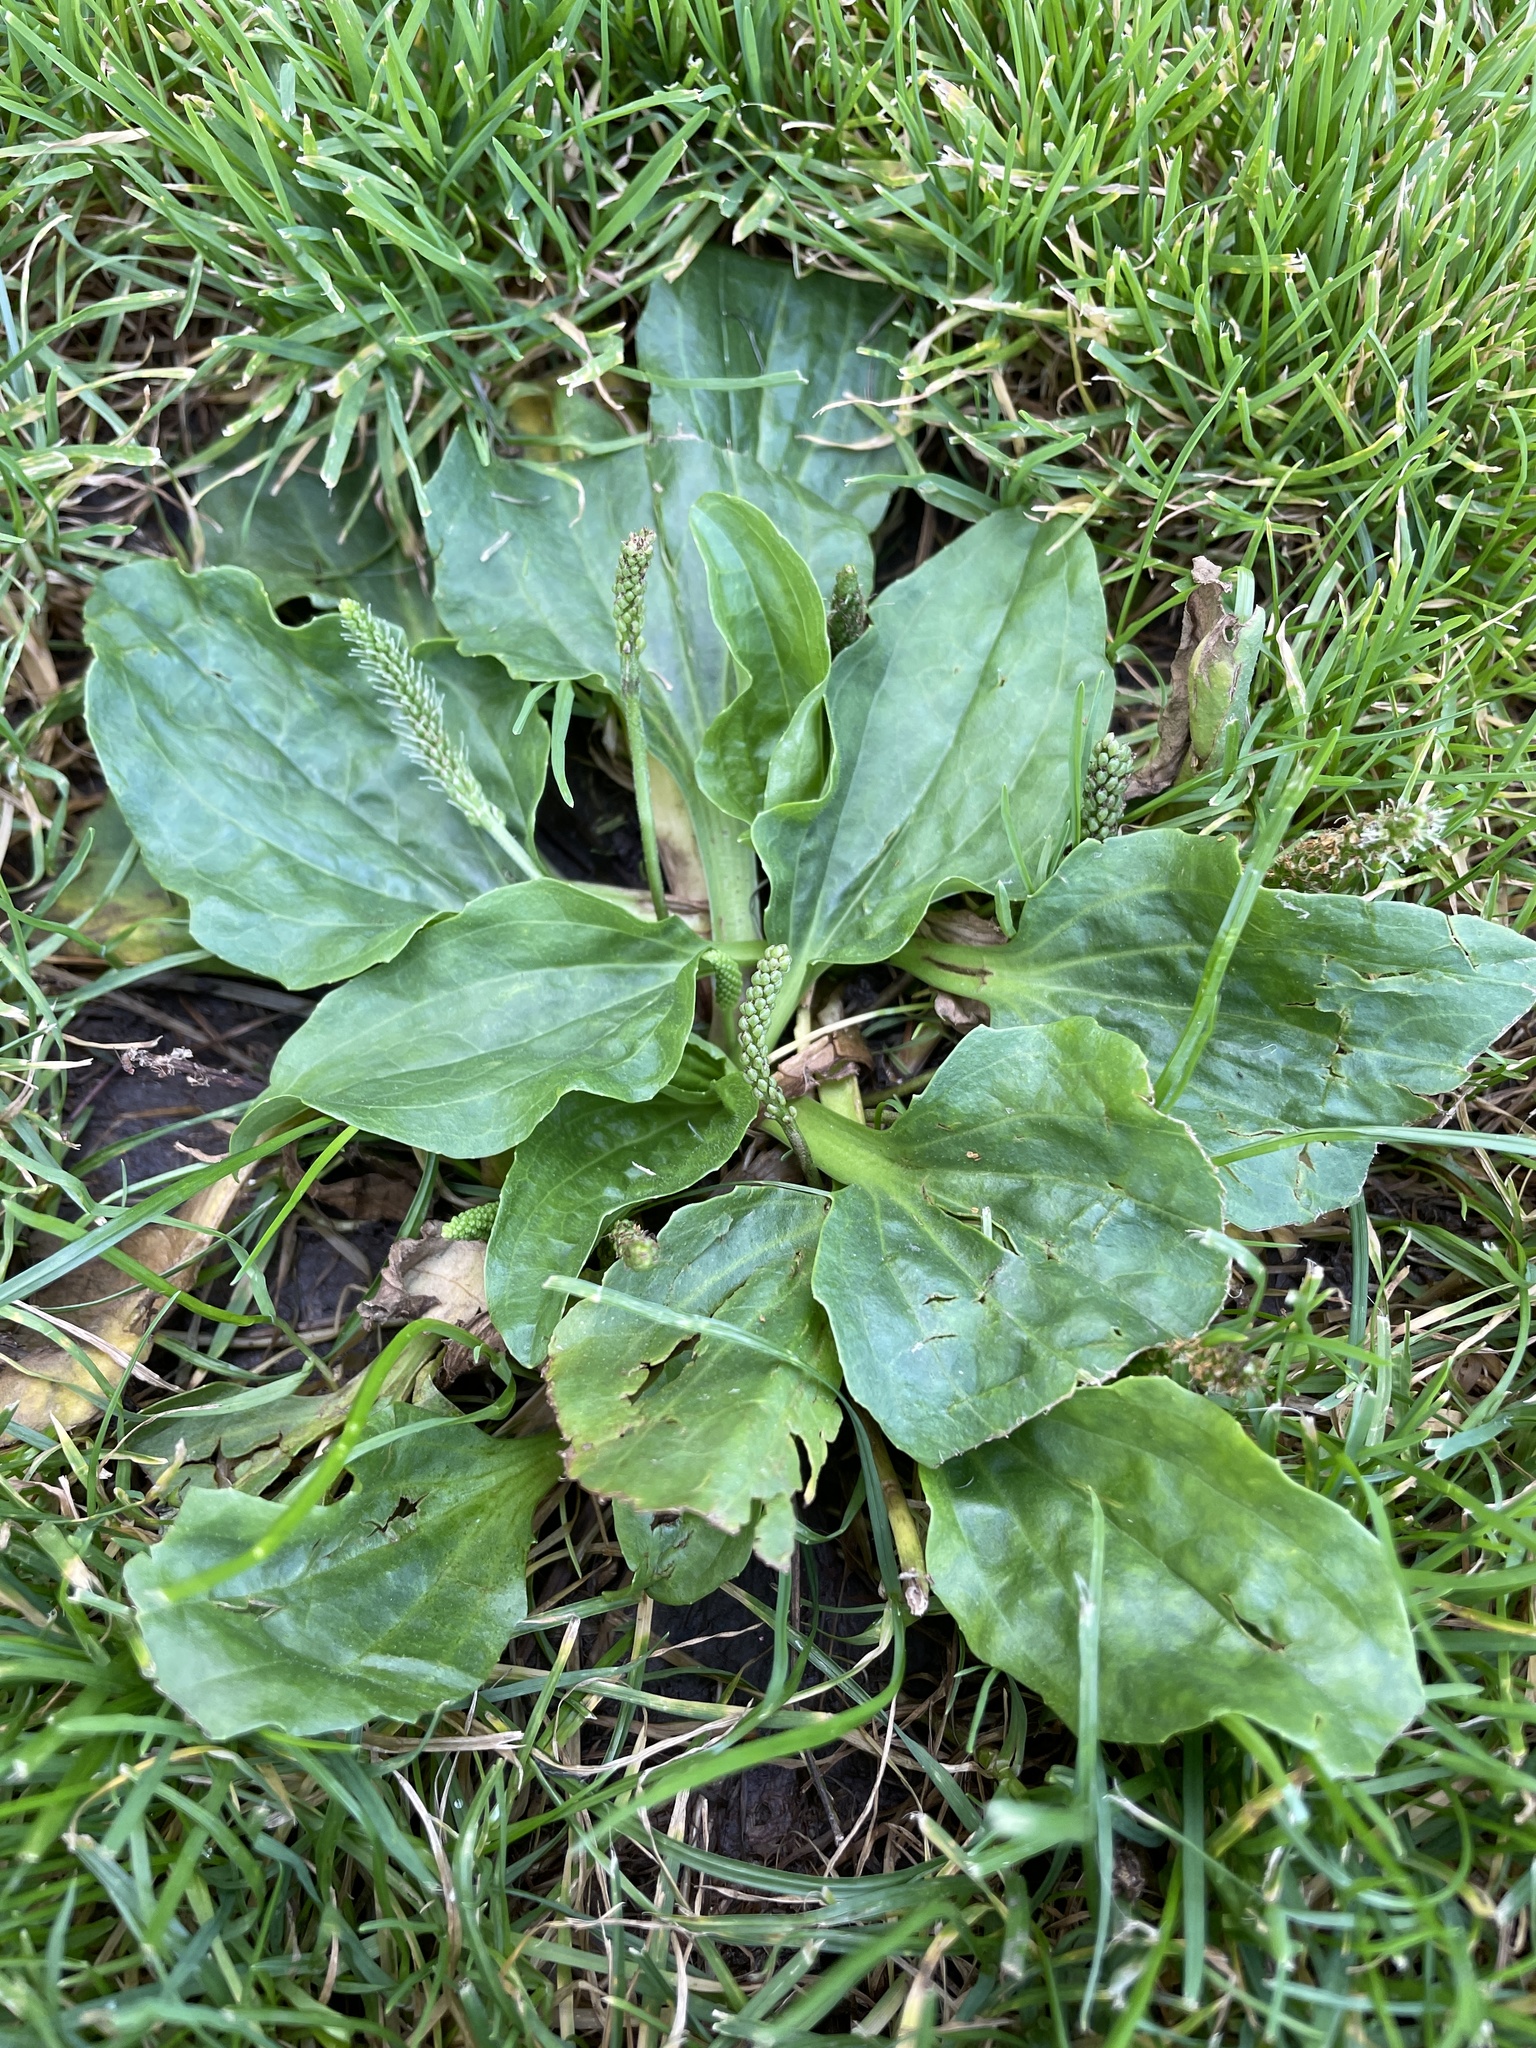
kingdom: Plantae
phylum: Tracheophyta
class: Magnoliopsida
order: Lamiales
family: Plantaginaceae
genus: Plantago
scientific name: Plantago major
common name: Common plantain
